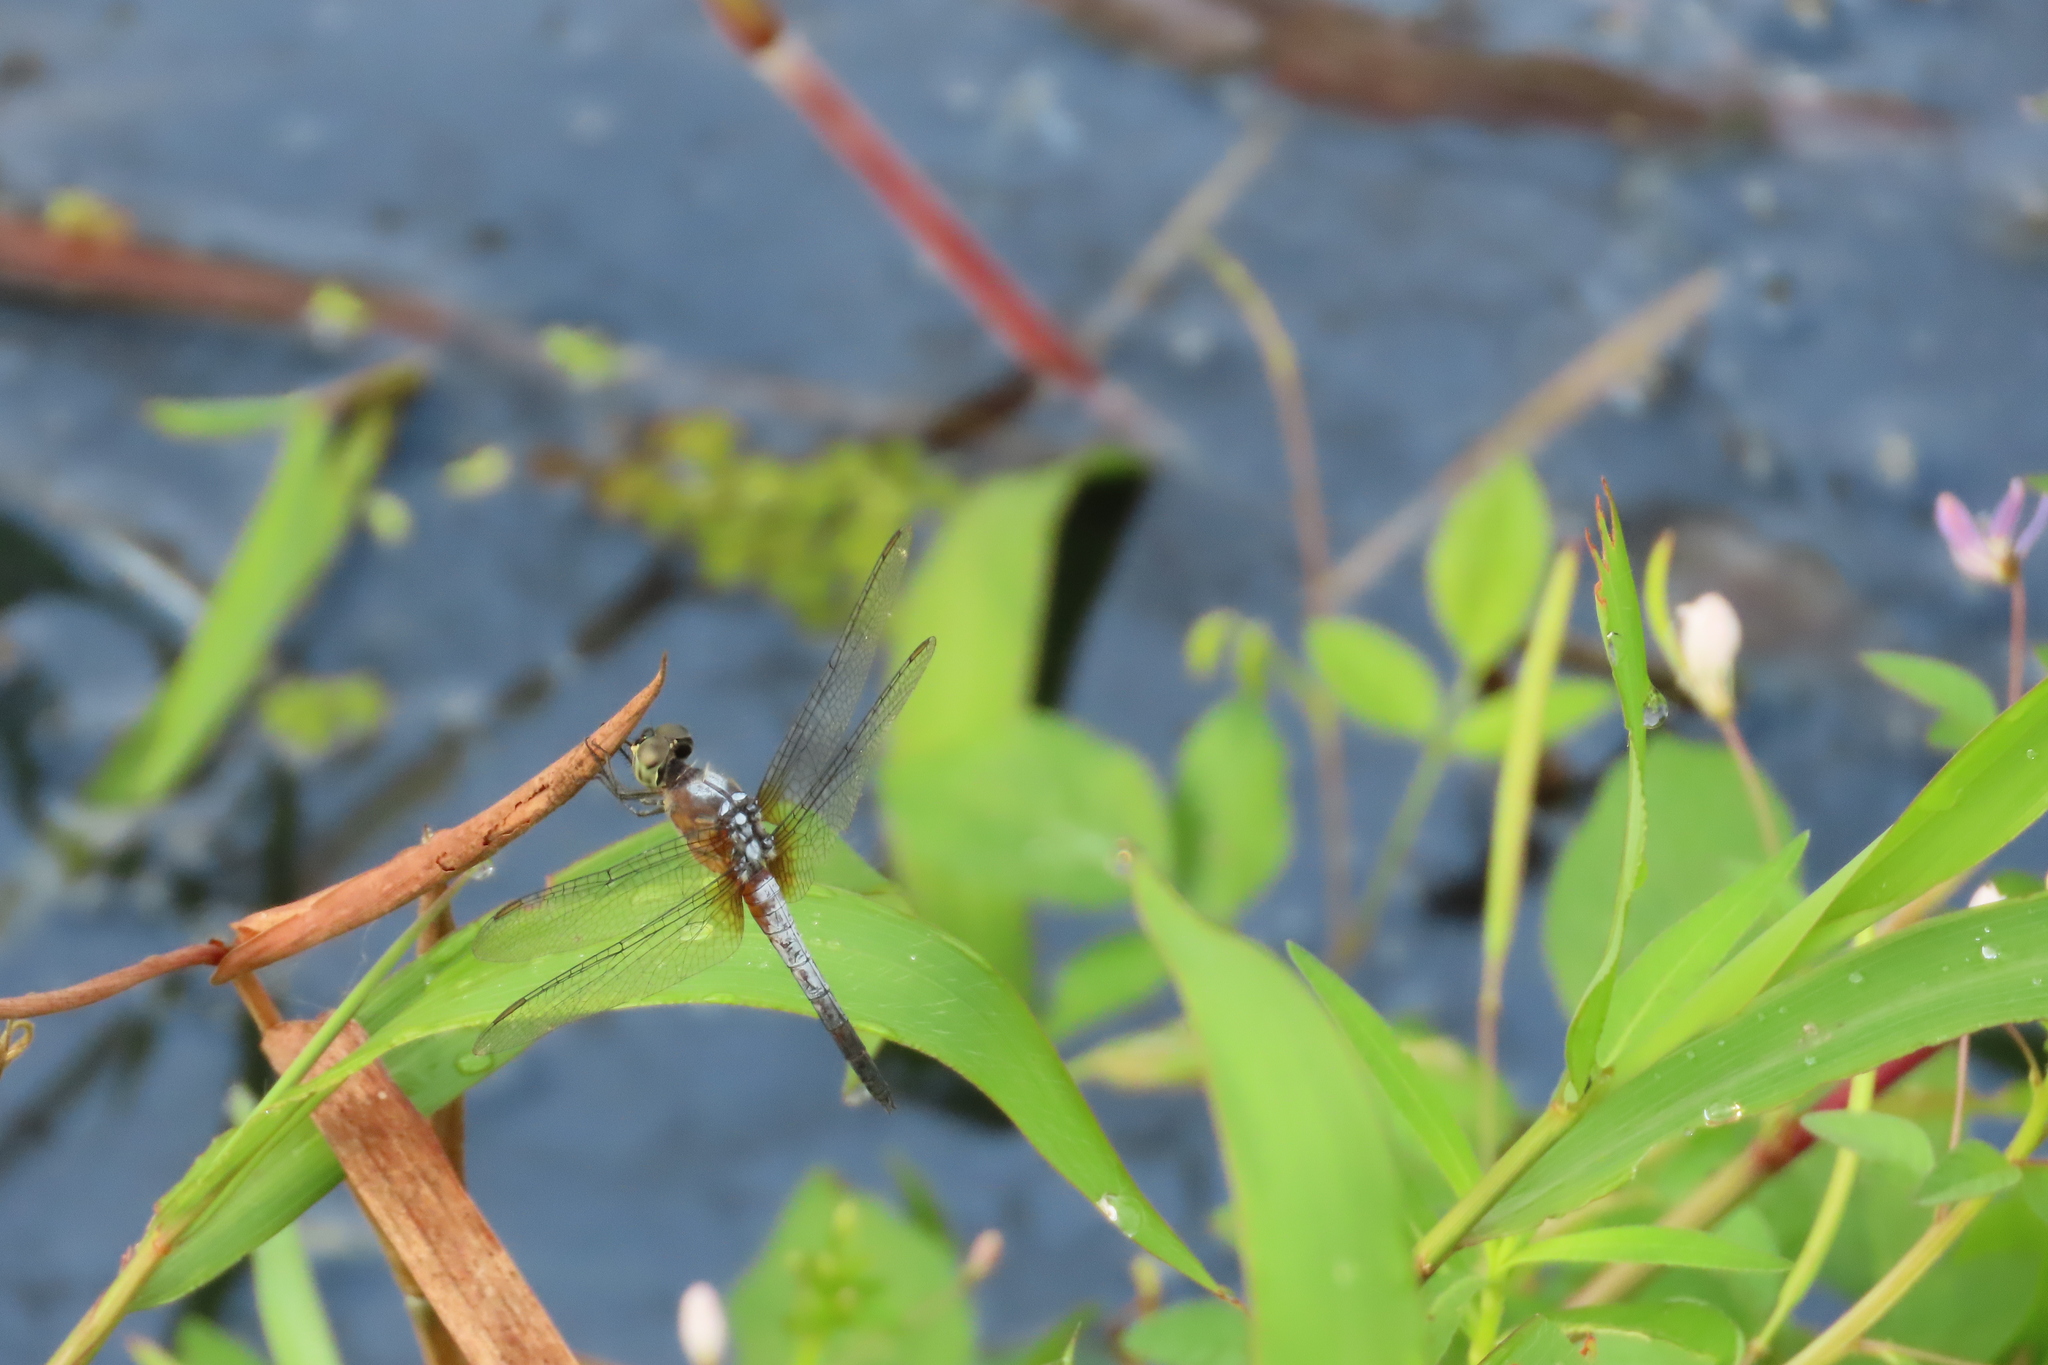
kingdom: Animalia
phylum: Arthropoda
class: Insecta
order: Odonata
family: Libellulidae
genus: Brachydiplax
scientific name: Brachydiplax chalybea
